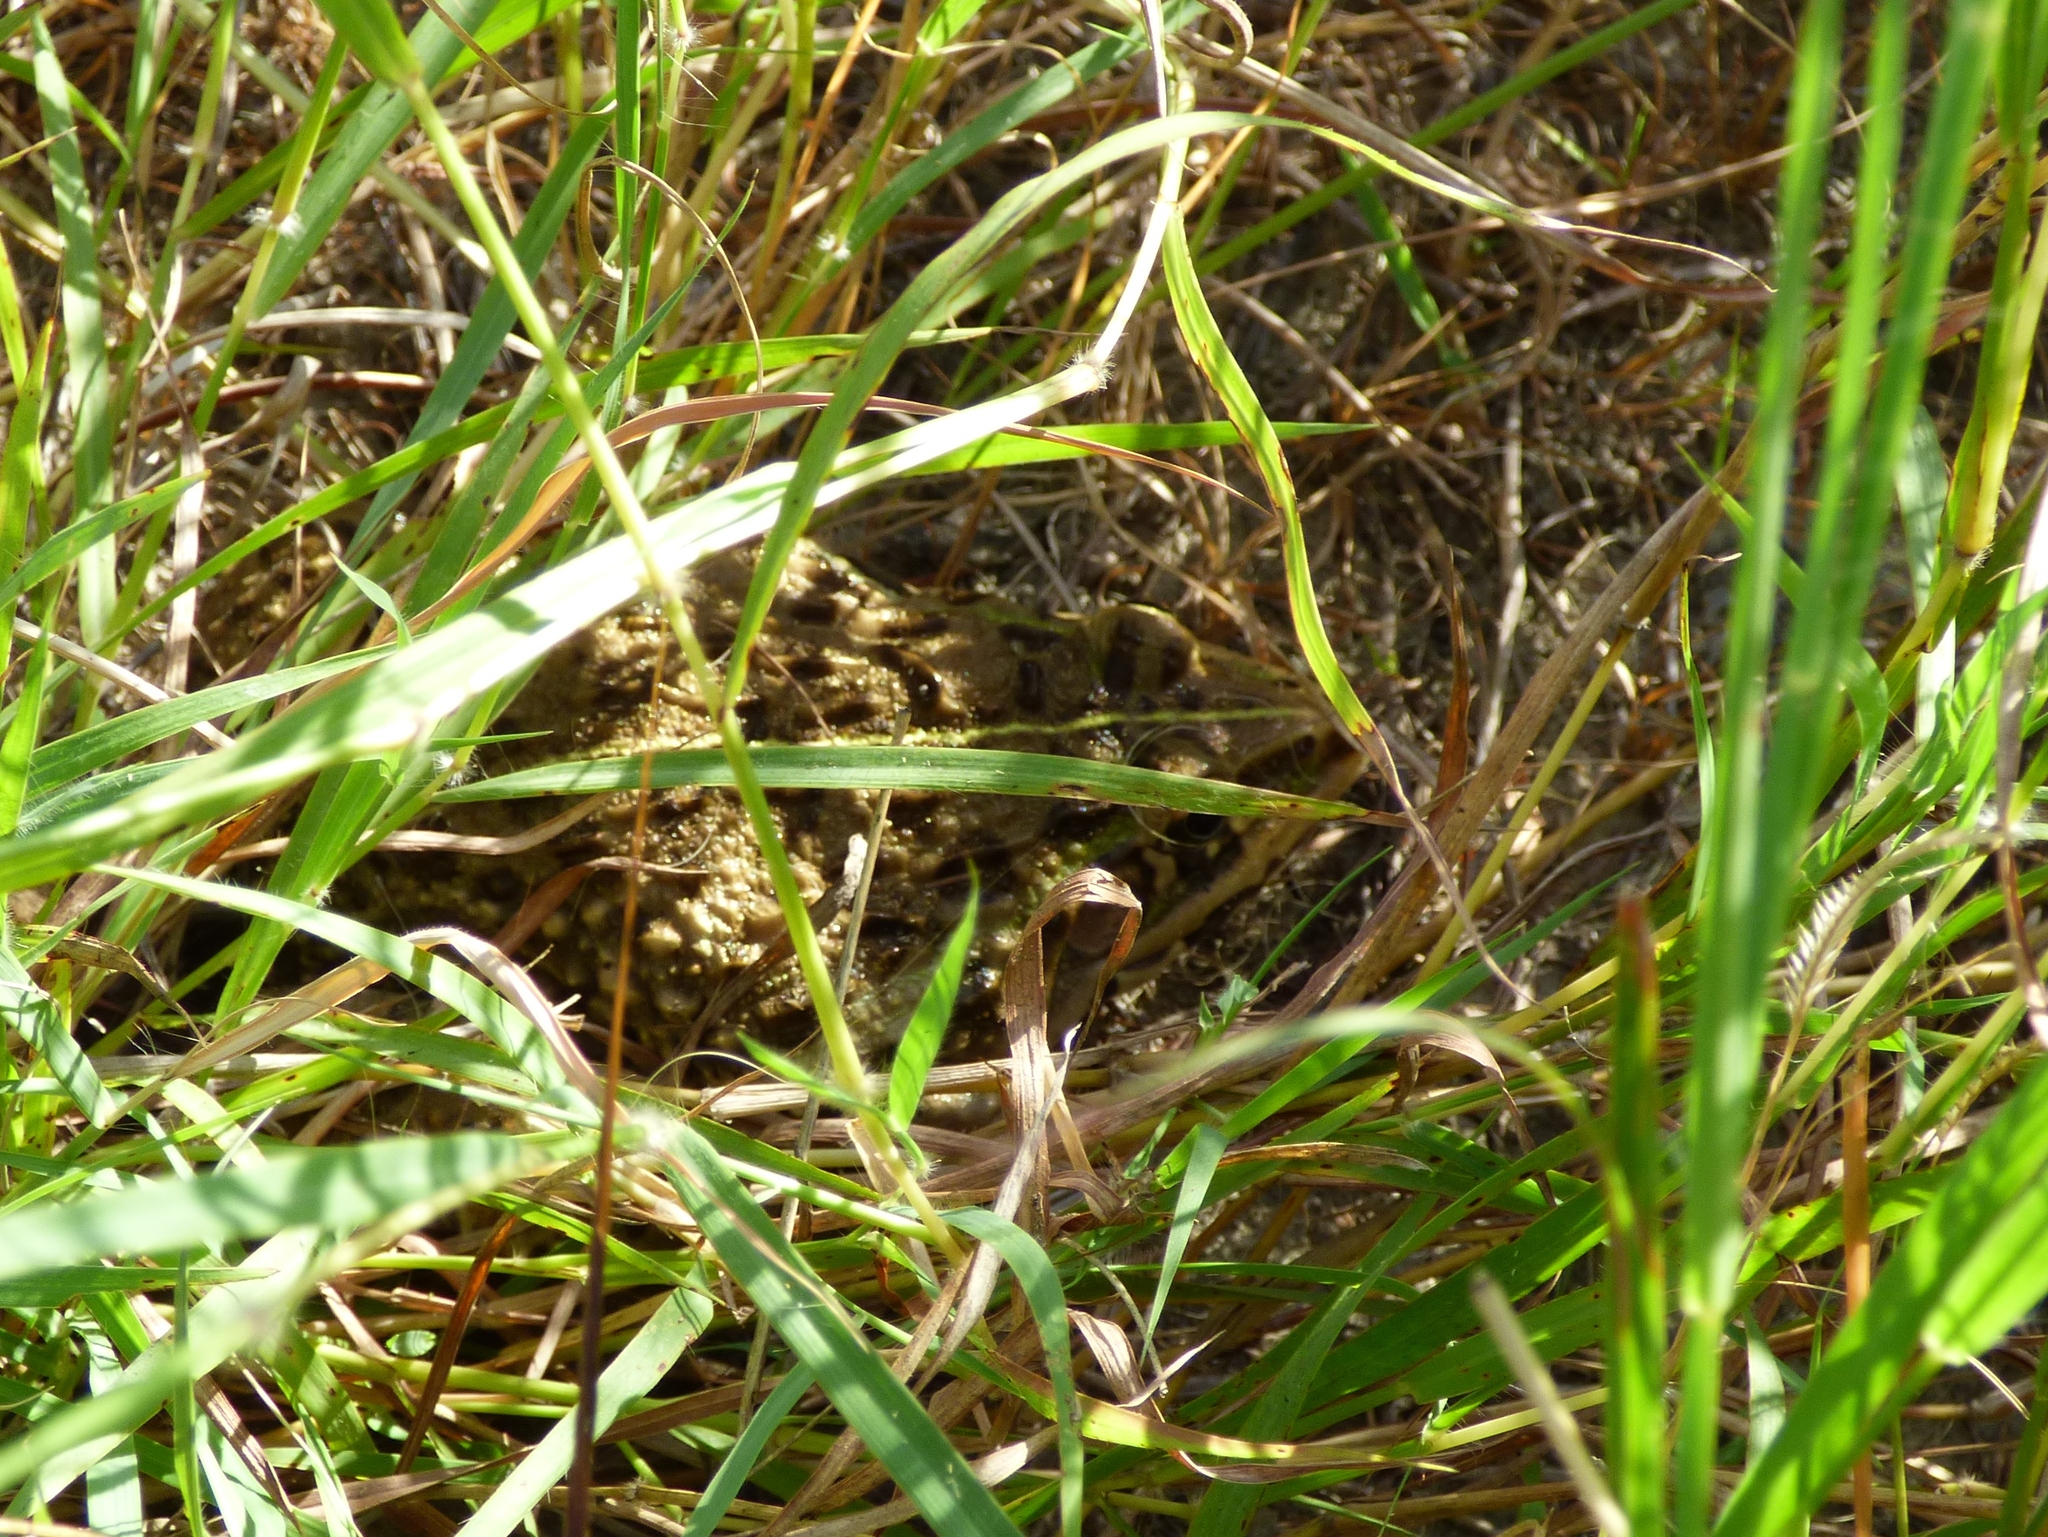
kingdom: Animalia
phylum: Chordata
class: Amphibia
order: Anura
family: Dicroglossidae
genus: Hoplobatrachus
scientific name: Hoplobatrachus tigerinus
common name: Indian bullfrog
